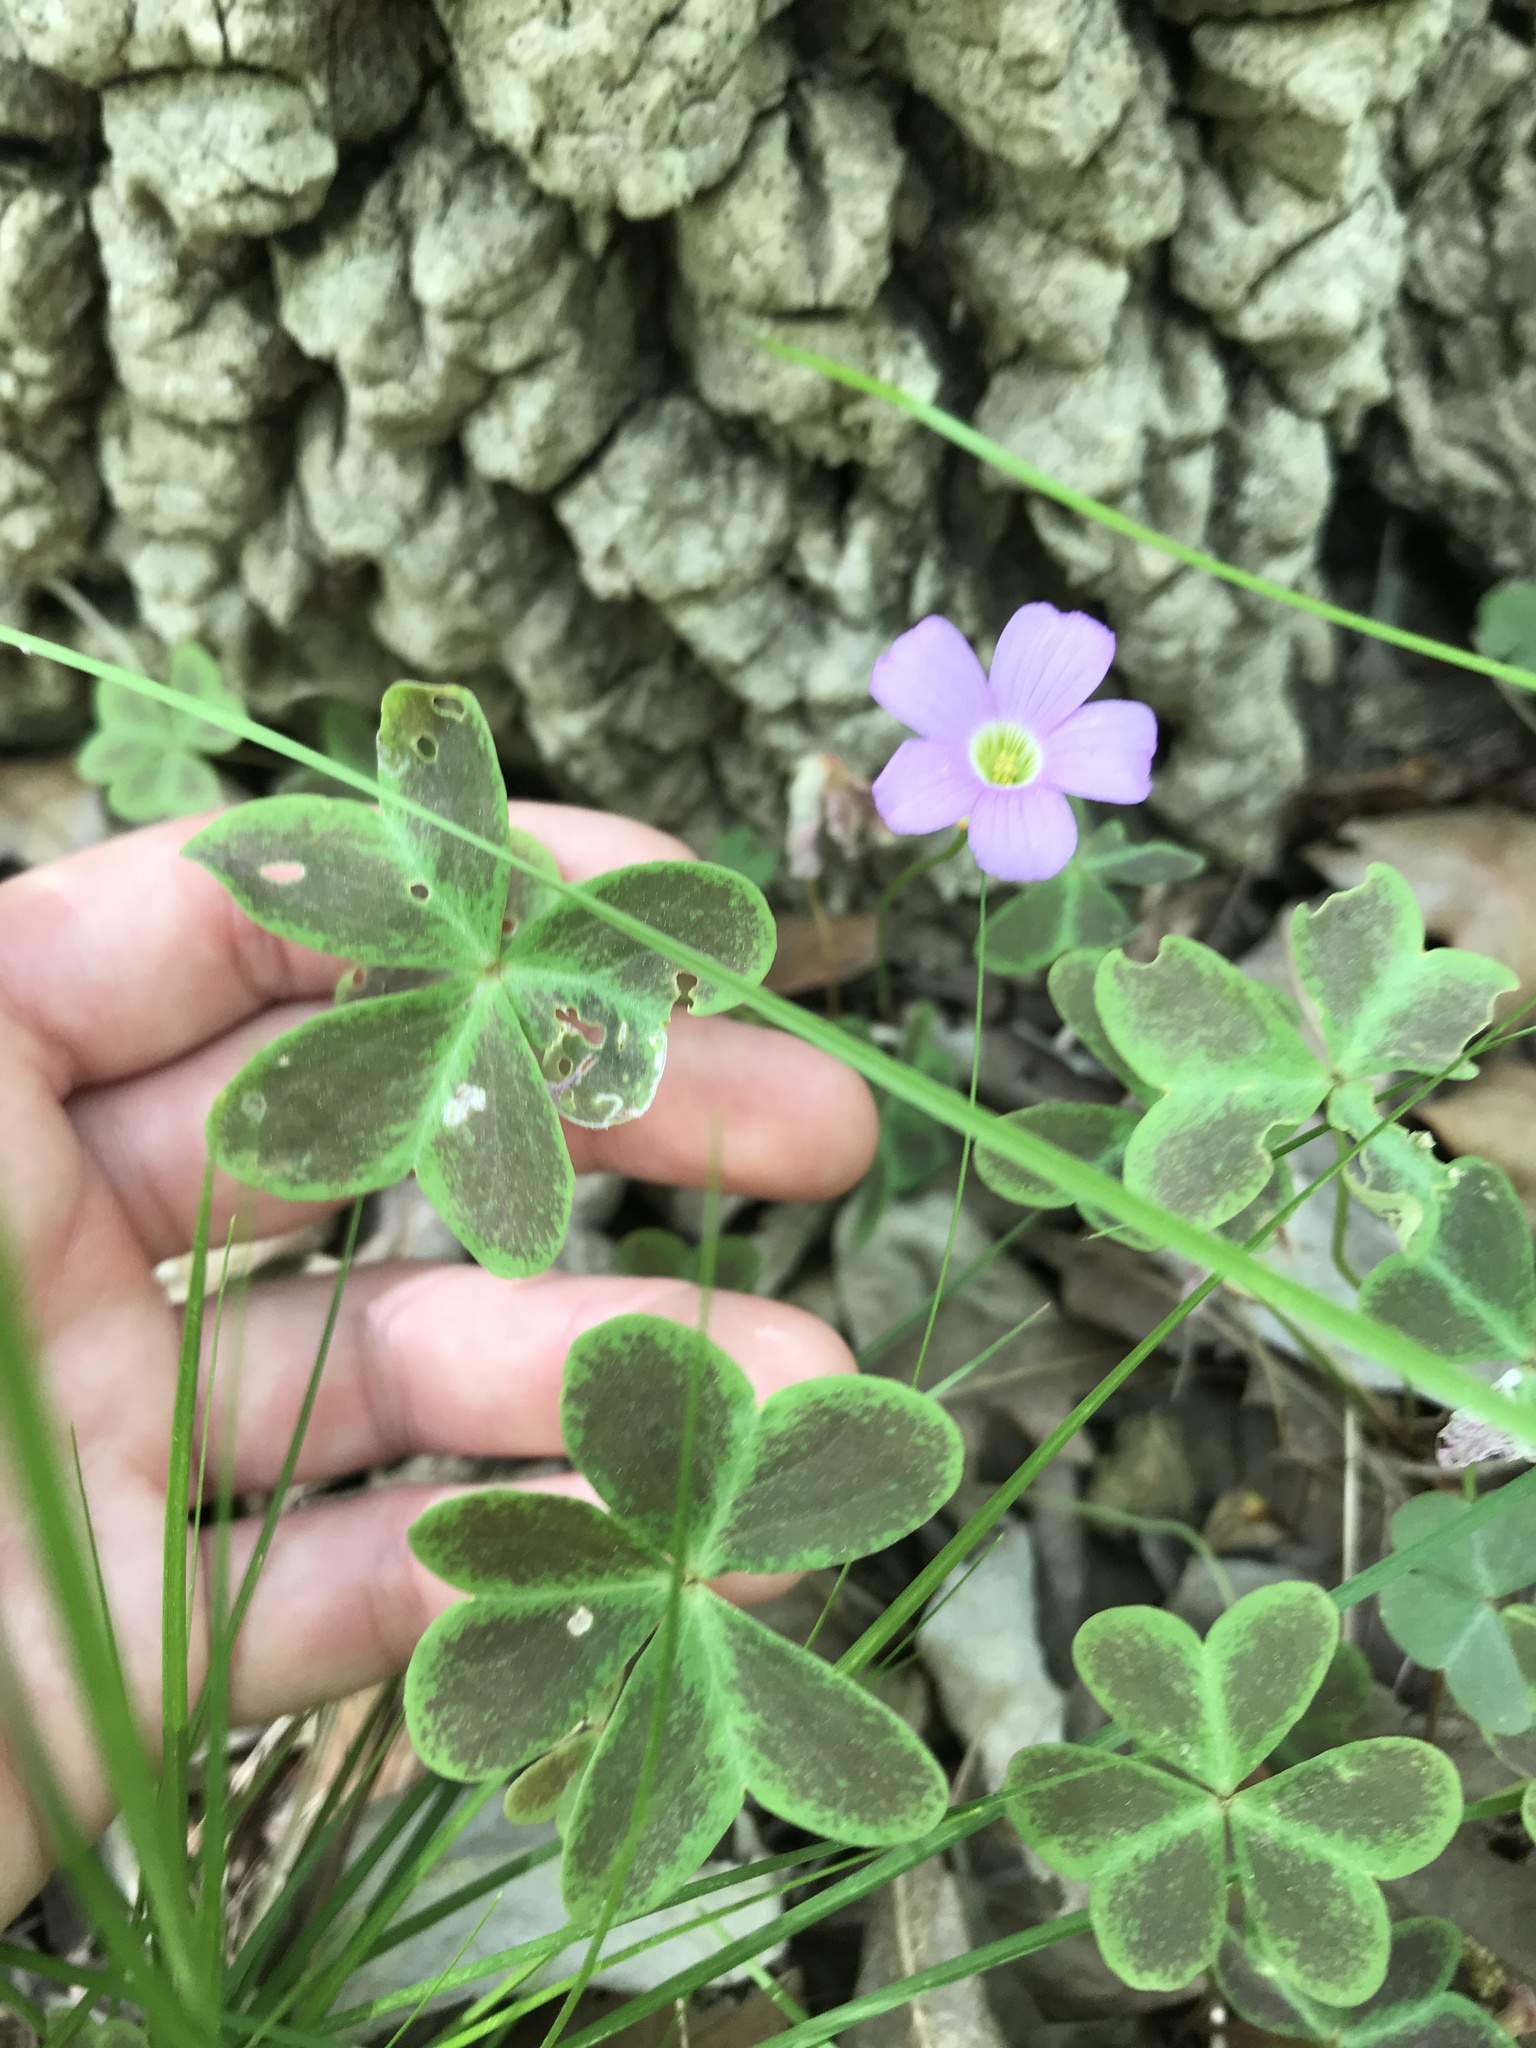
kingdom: Plantae
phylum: Tracheophyta
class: Magnoliopsida
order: Oxalidales
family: Oxalidaceae
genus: Oxalis
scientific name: Oxalis violacea
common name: Violet wood-sorrel
